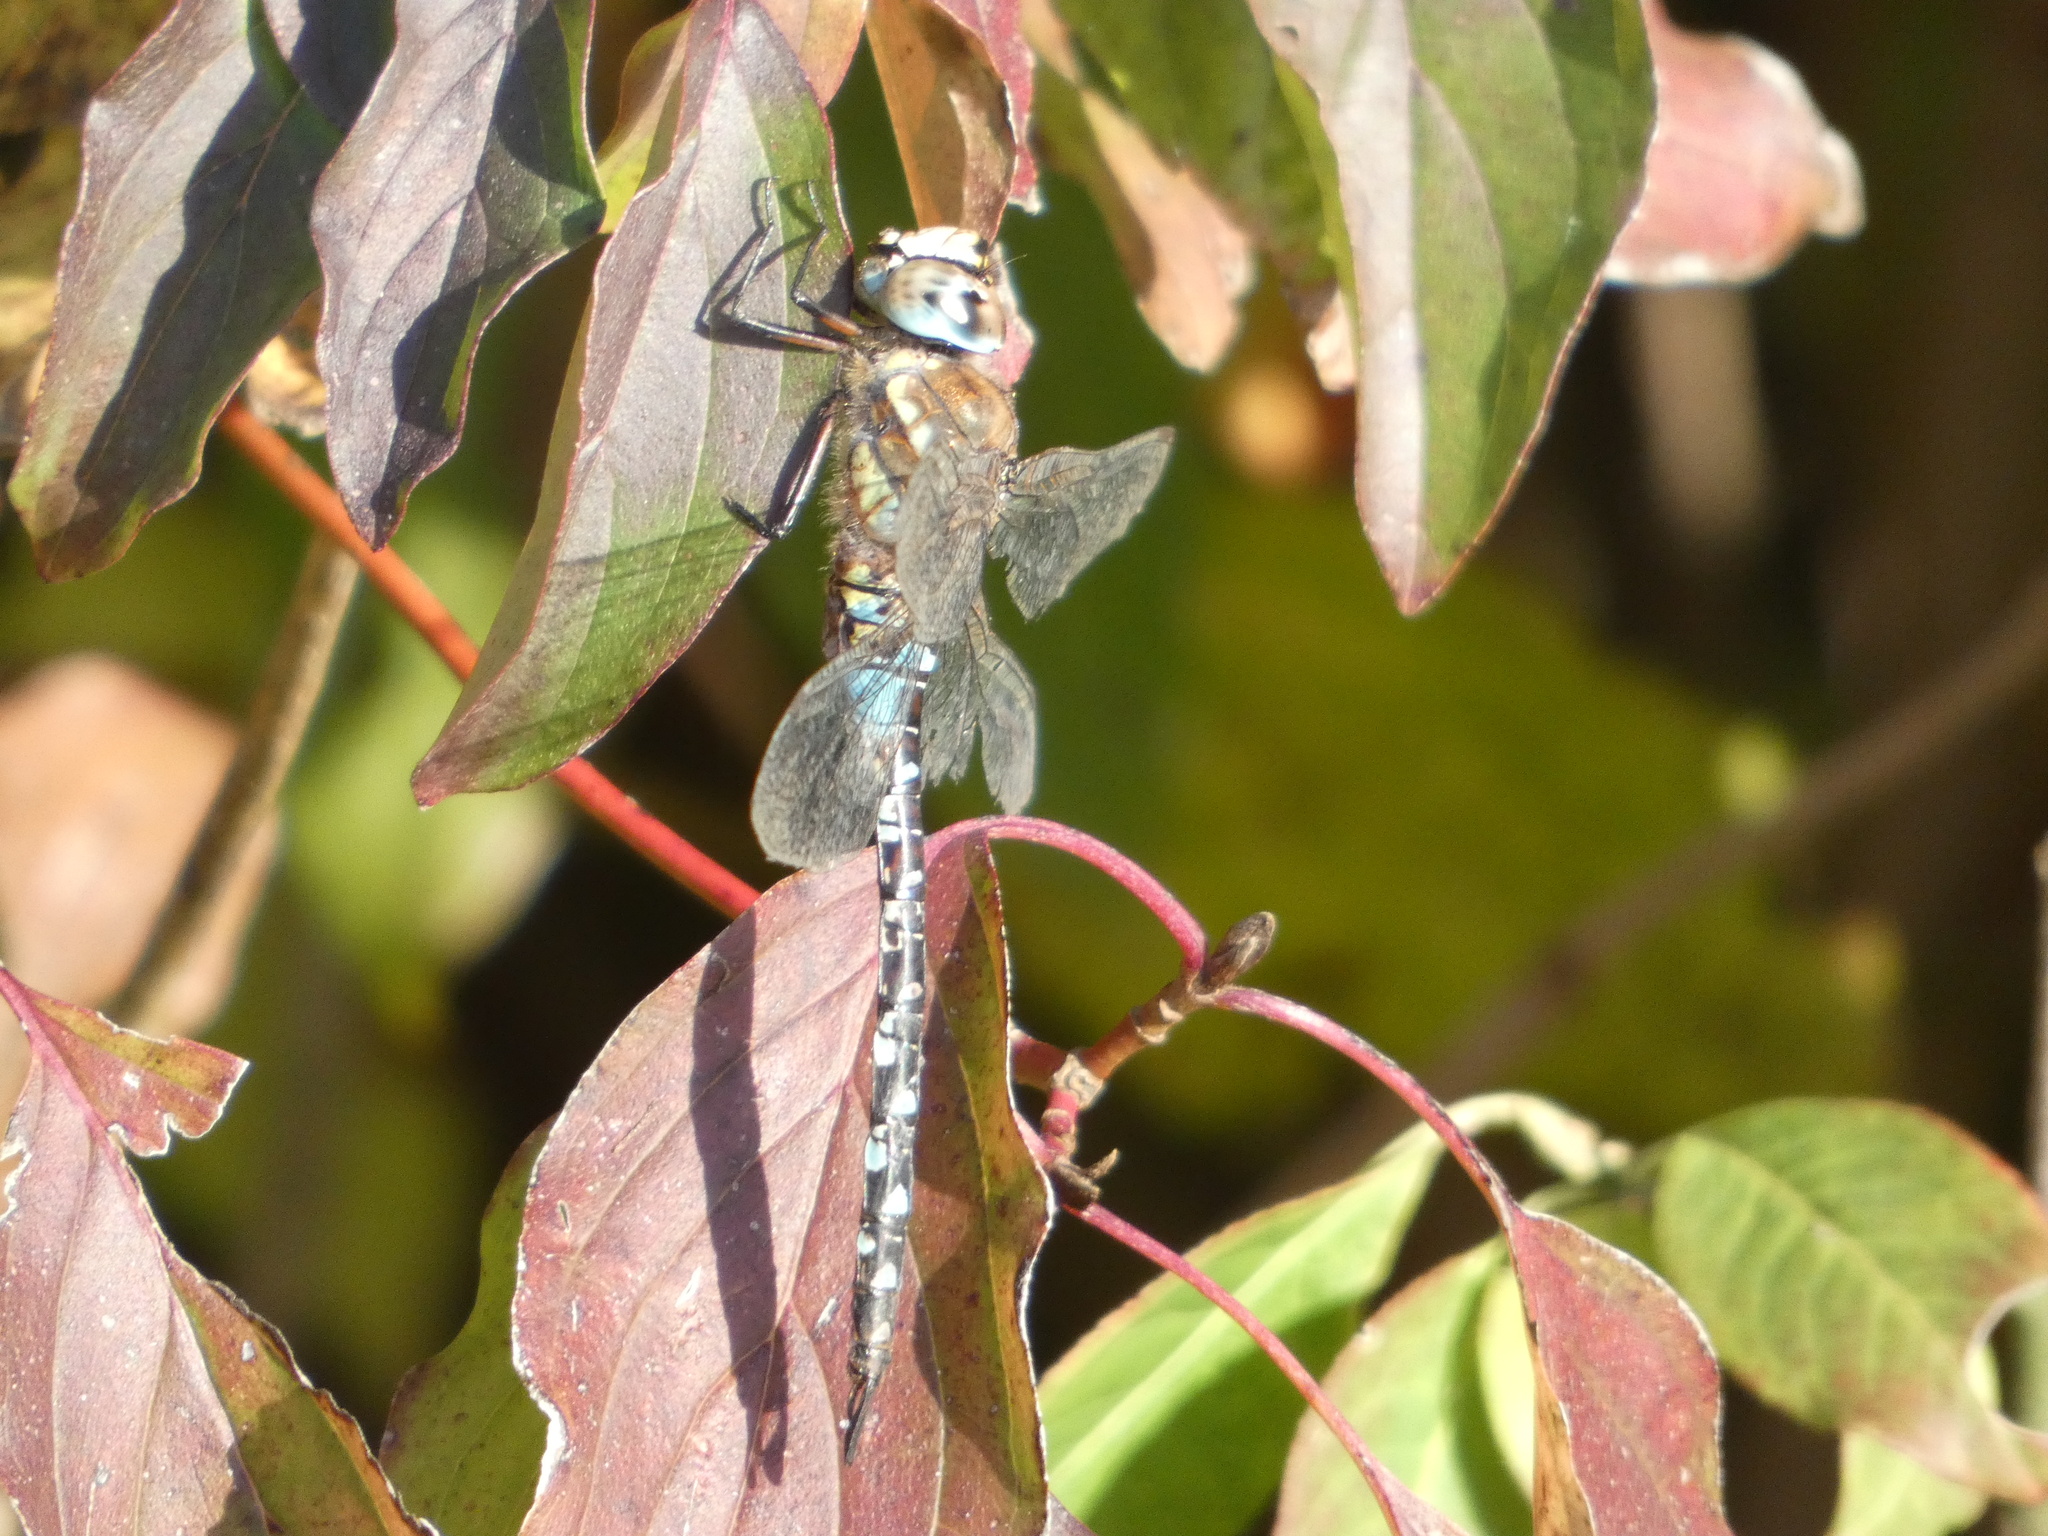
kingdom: Animalia
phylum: Arthropoda
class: Insecta
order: Odonata
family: Aeshnidae
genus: Aeshna
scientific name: Aeshna mixta
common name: Migrant hawker
